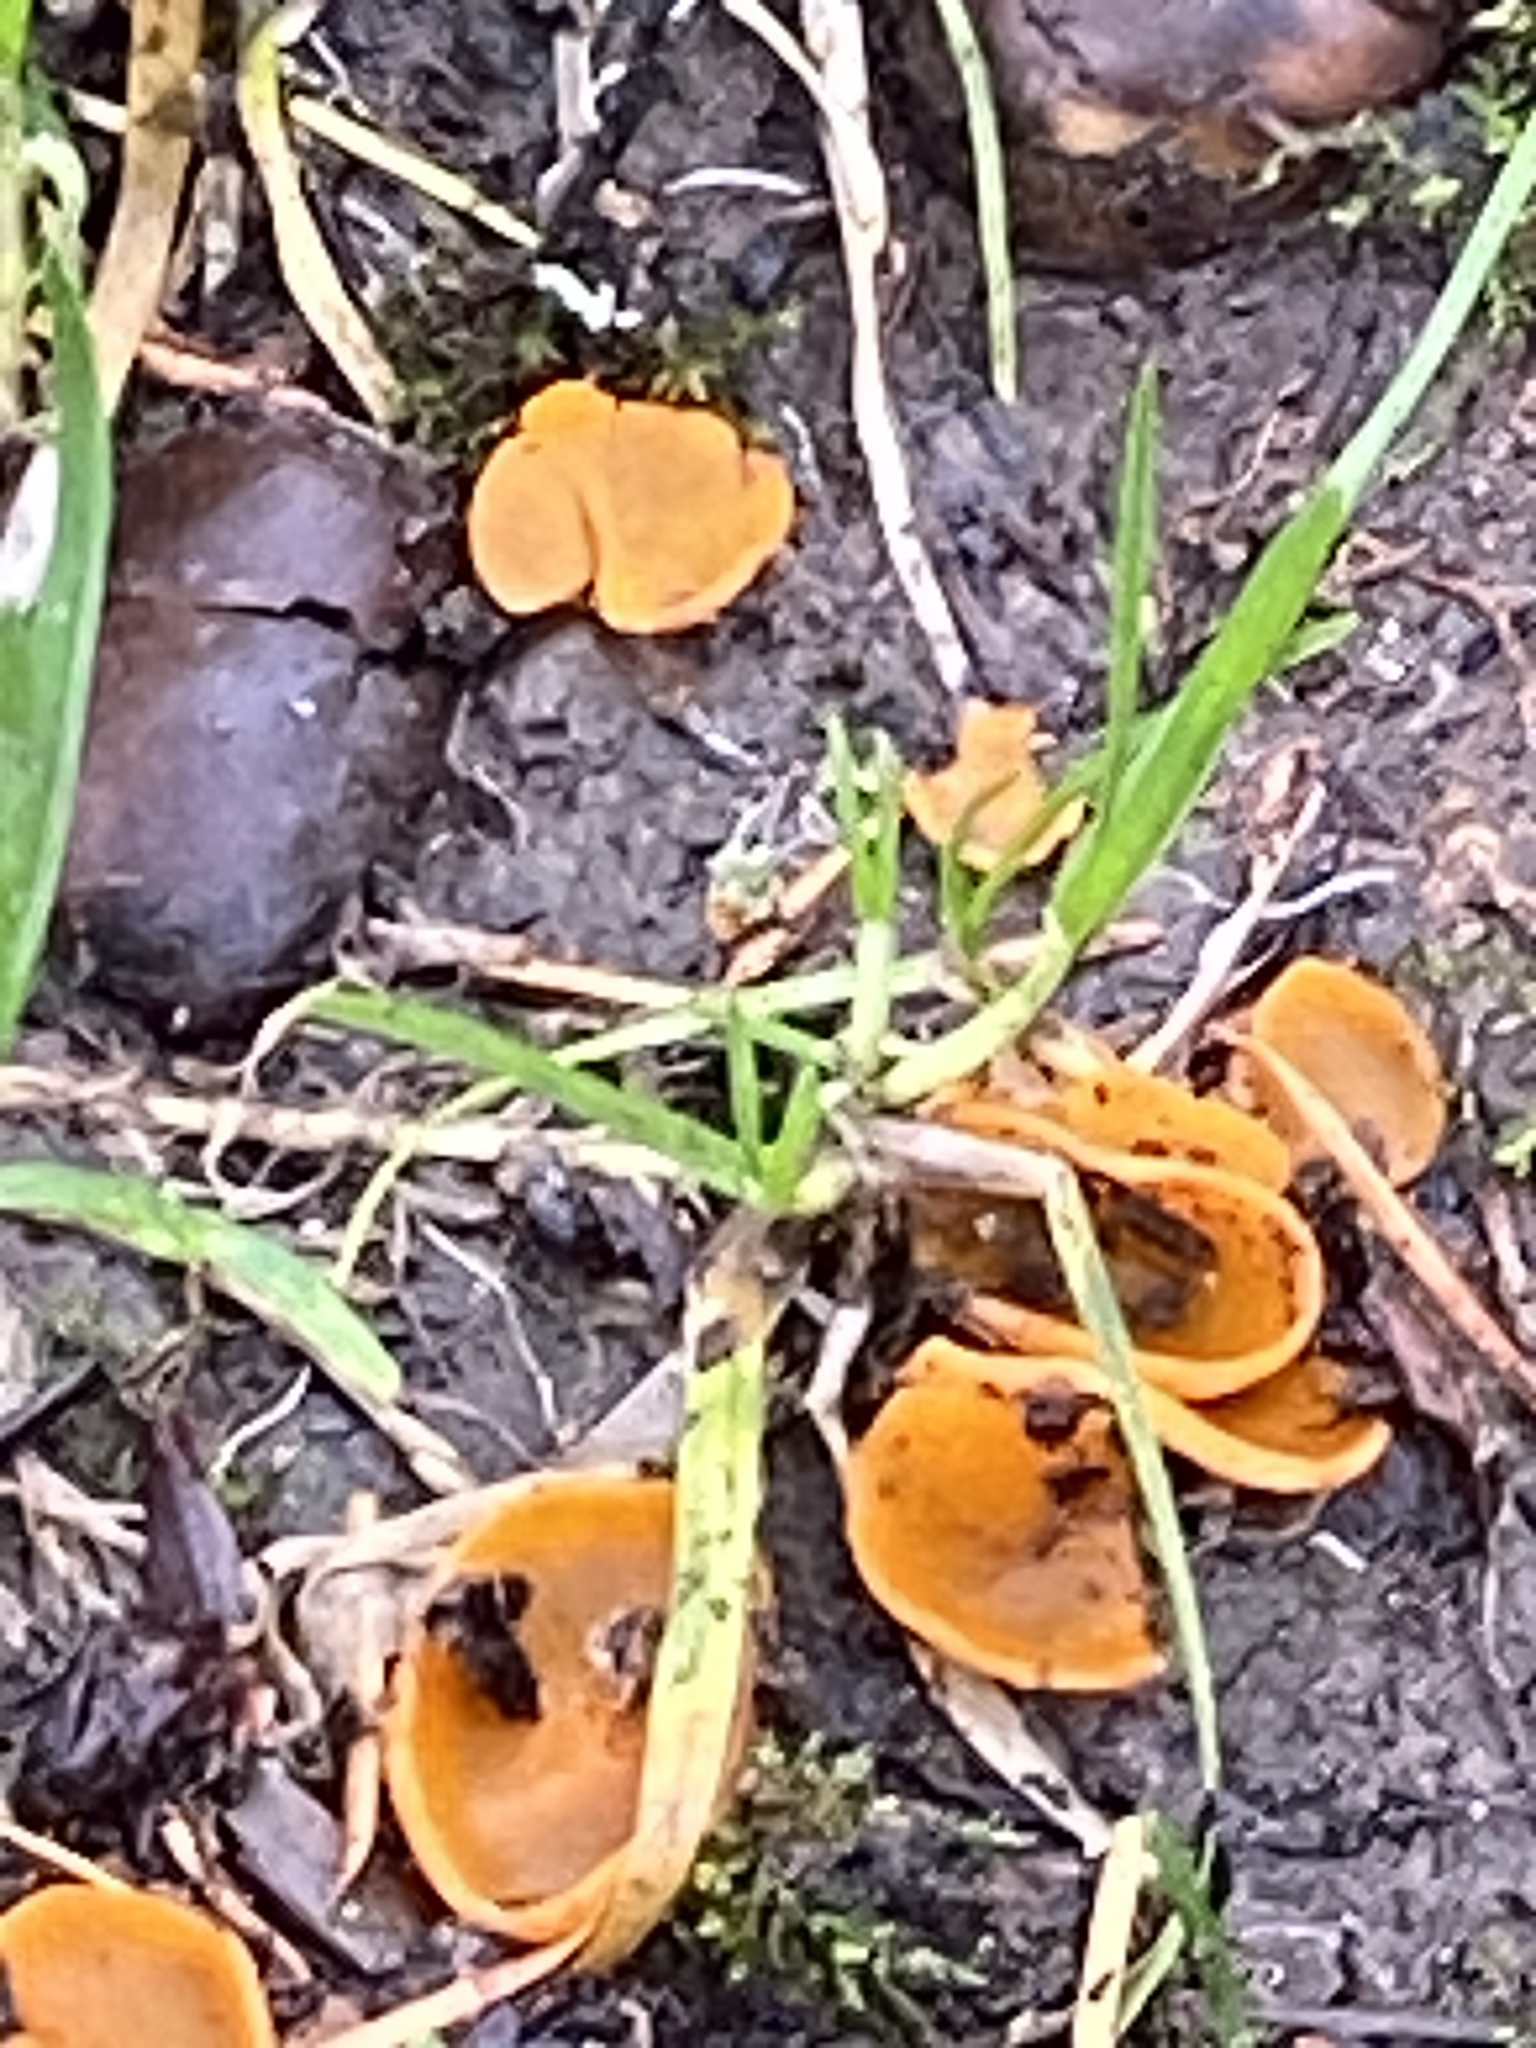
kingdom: Fungi
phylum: Ascomycota
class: Pezizomycetes
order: Pezizales
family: Pyronemataceae
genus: Aleuria
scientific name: Aleuria aurantia
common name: Orange peel fungus
